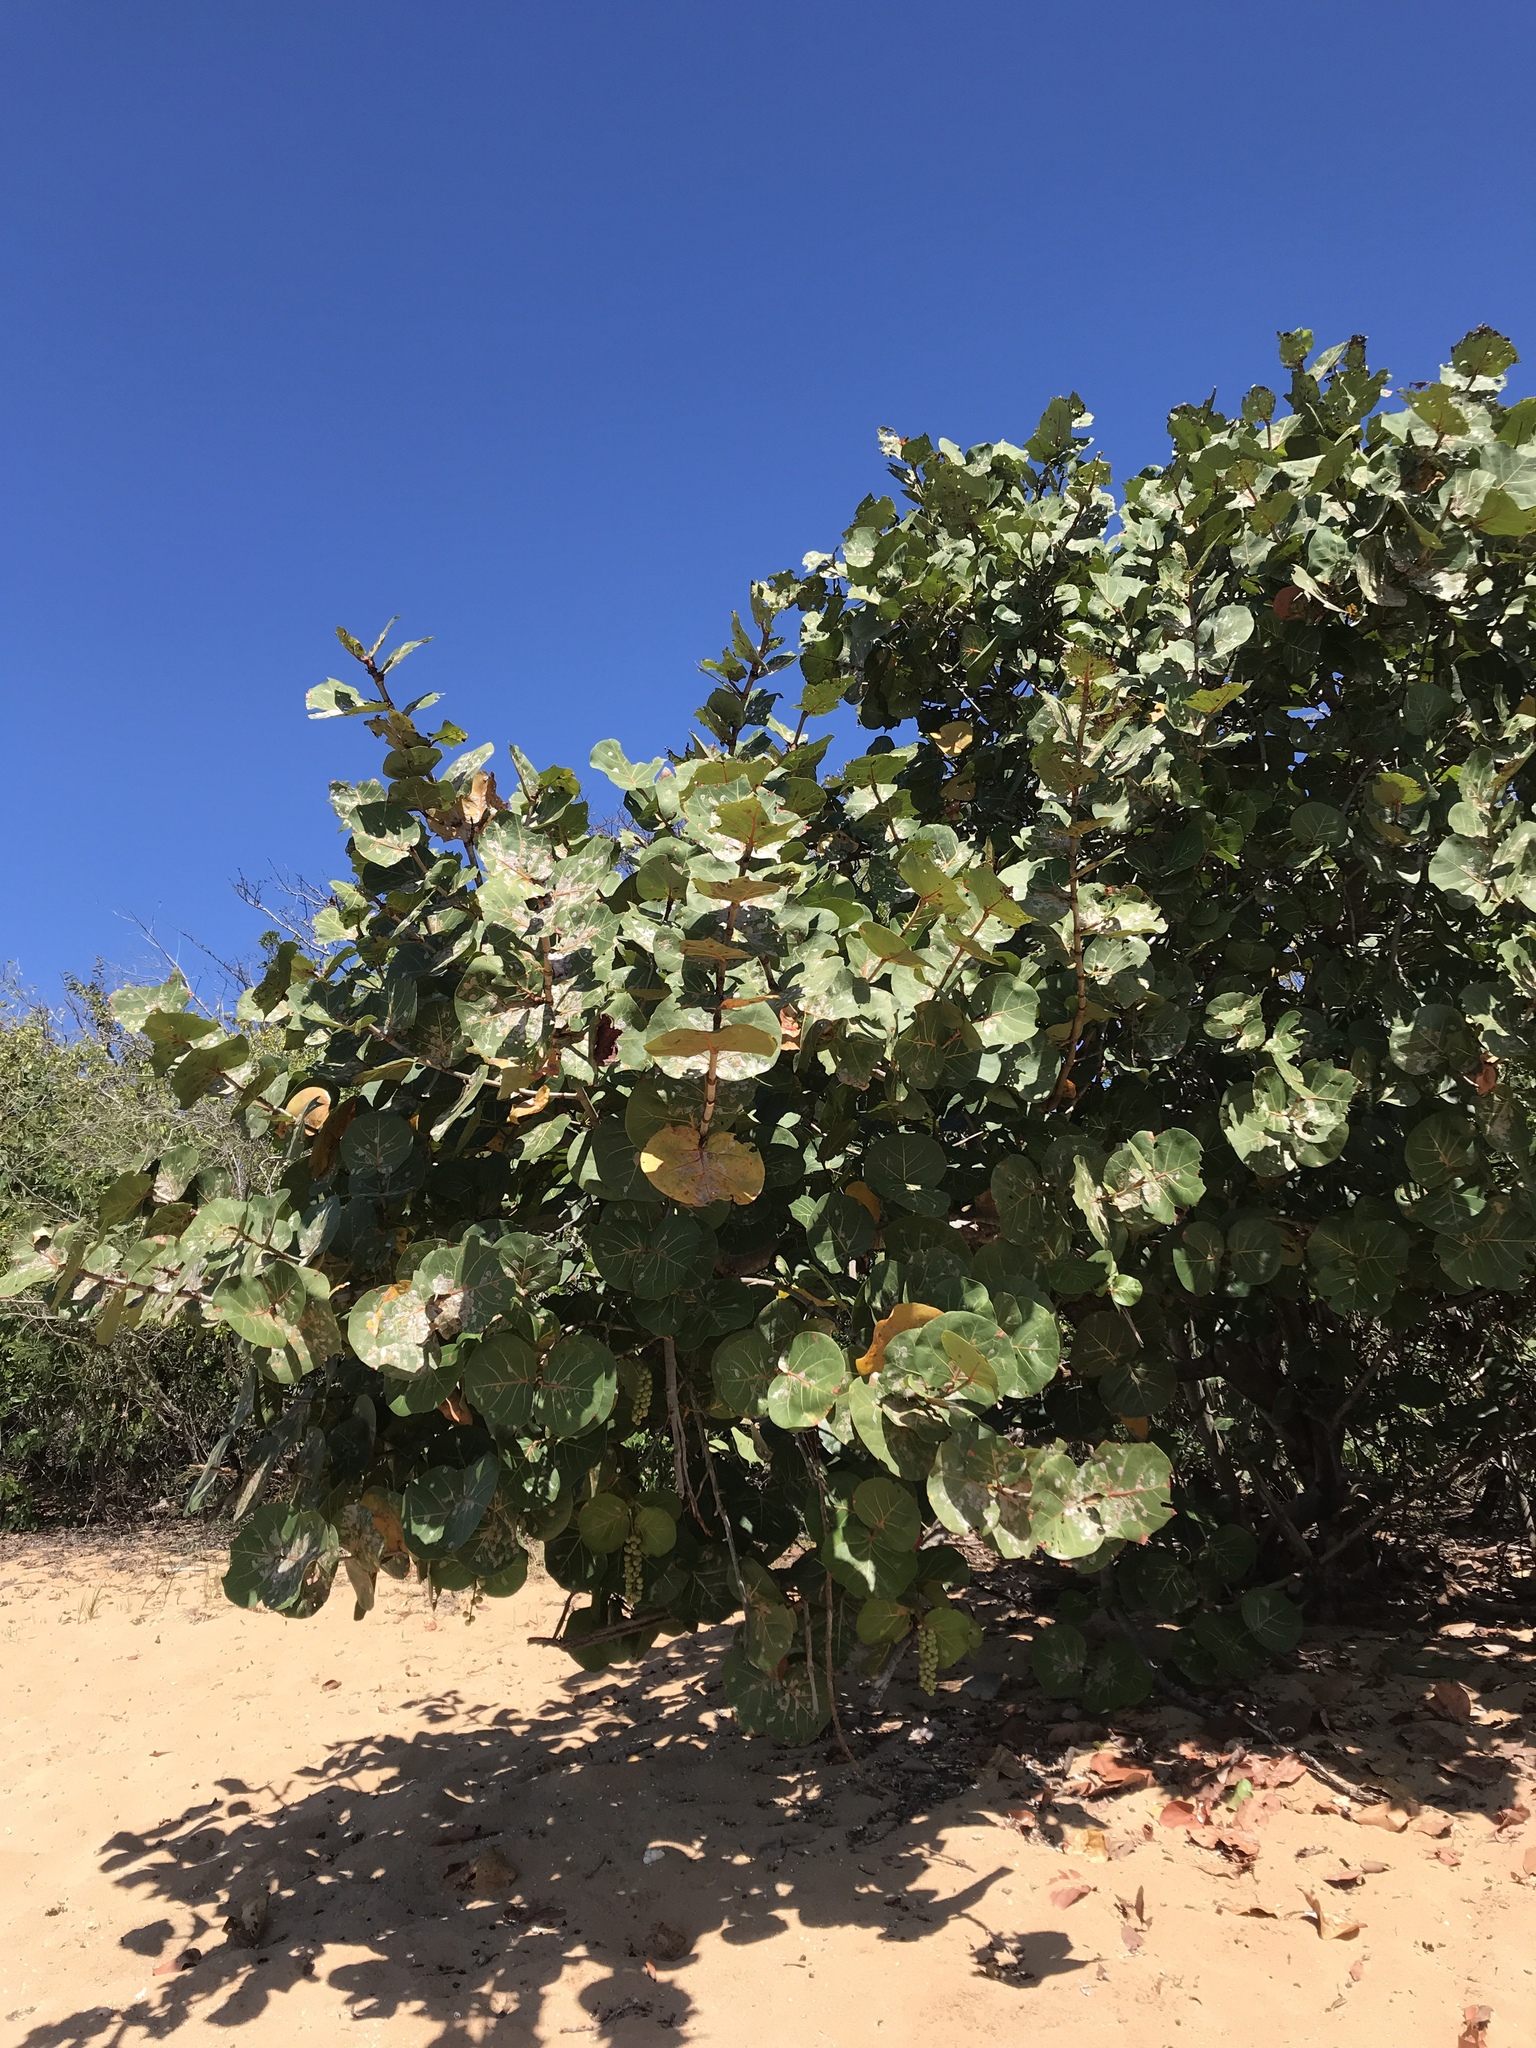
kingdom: Plantae
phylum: Tracheophyta
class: Magnoliopsida
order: Caryophyllales
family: Polygonaceae
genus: Coccoloba
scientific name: Coccoloba uvifera
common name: Seagrape
